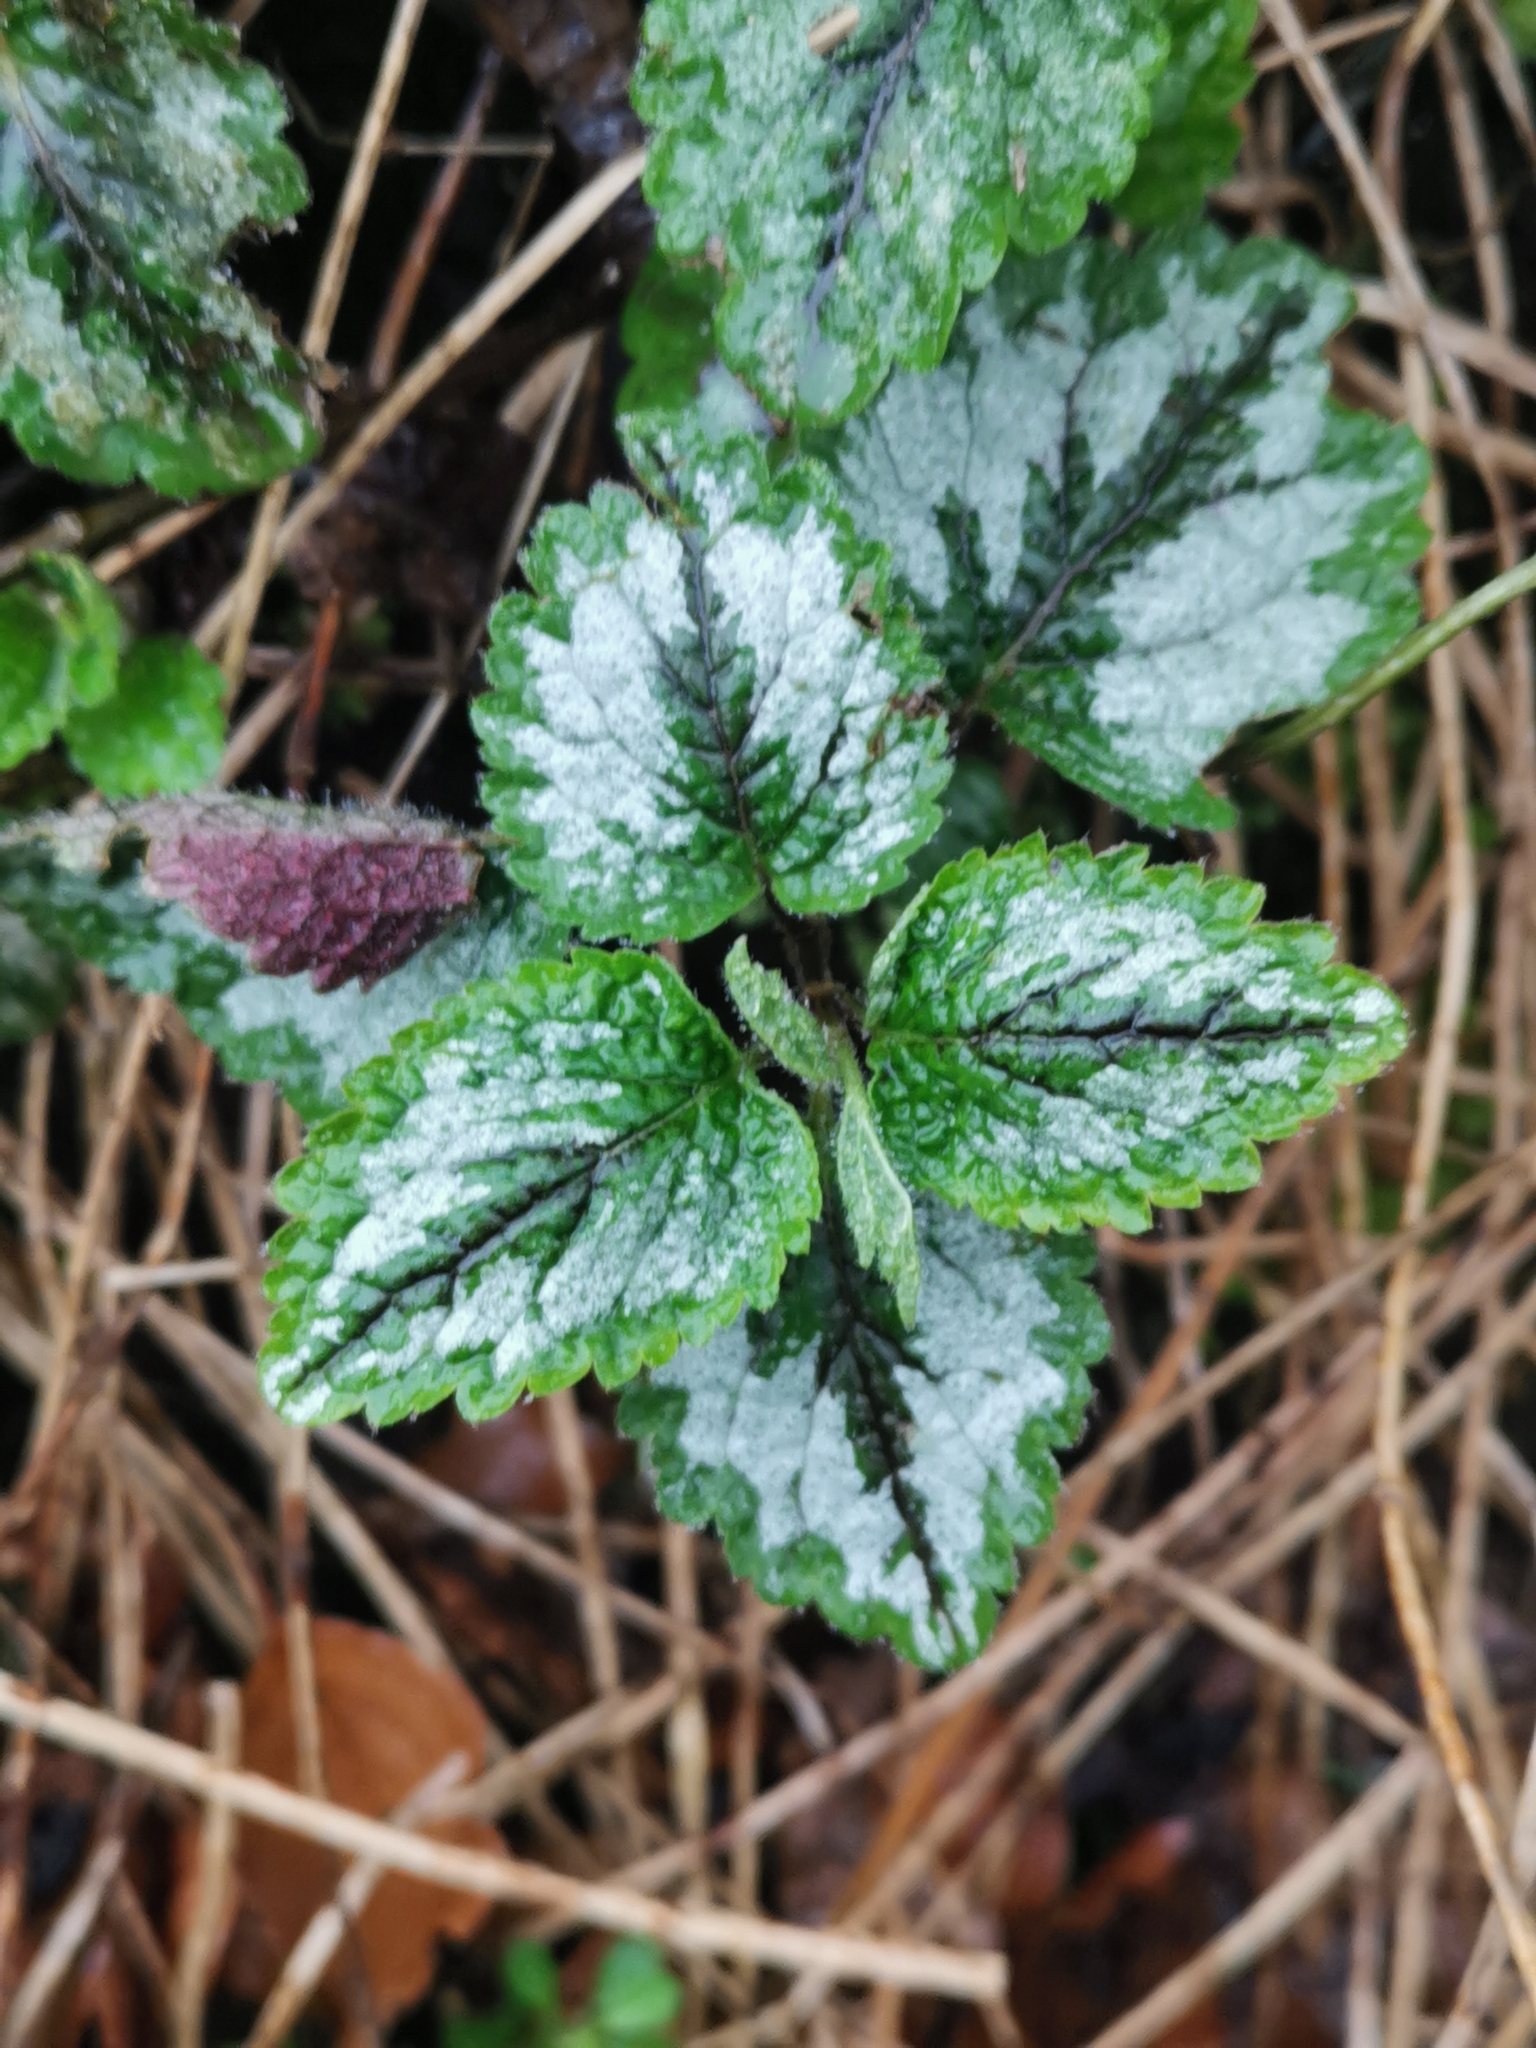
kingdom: Plantae
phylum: Tracheophyta
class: Magnoliopsida
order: Lamiales
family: Lamiaceae
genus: Lamium
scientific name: Lamium galeobdolon
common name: Yellow archangel
